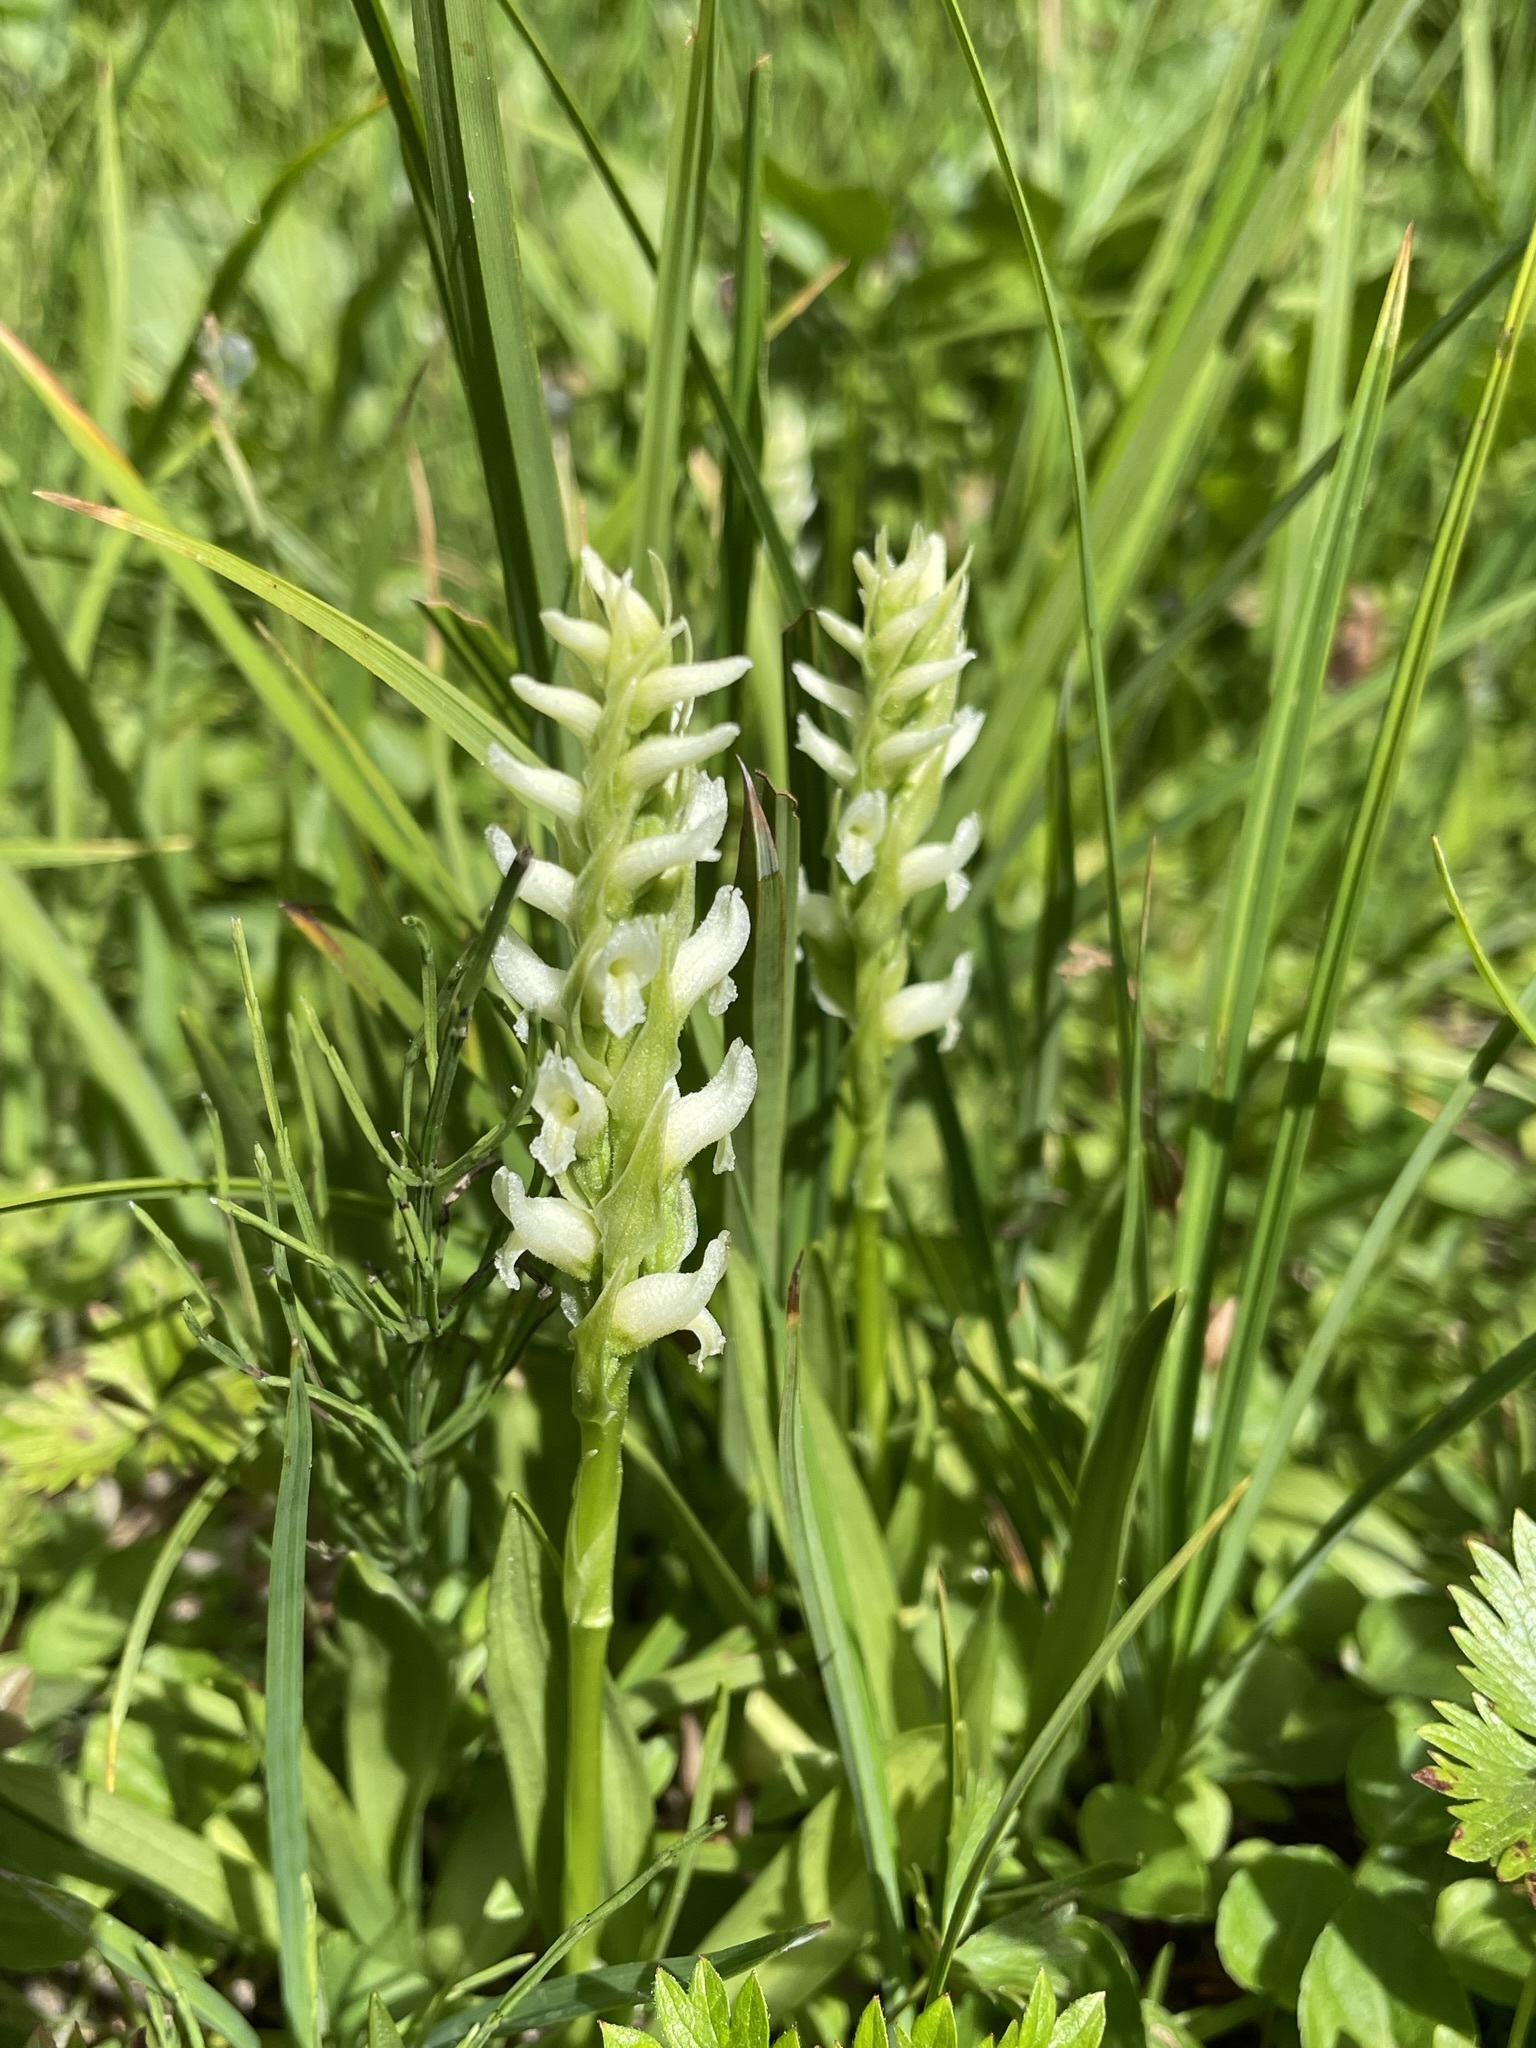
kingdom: Plantae
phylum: Tracheophyta
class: Liliopsida
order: Asparagales
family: Orchidaceae
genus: Spiranthes
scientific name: Spiranthes romanzoffiana
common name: Irish lady's-tresses
